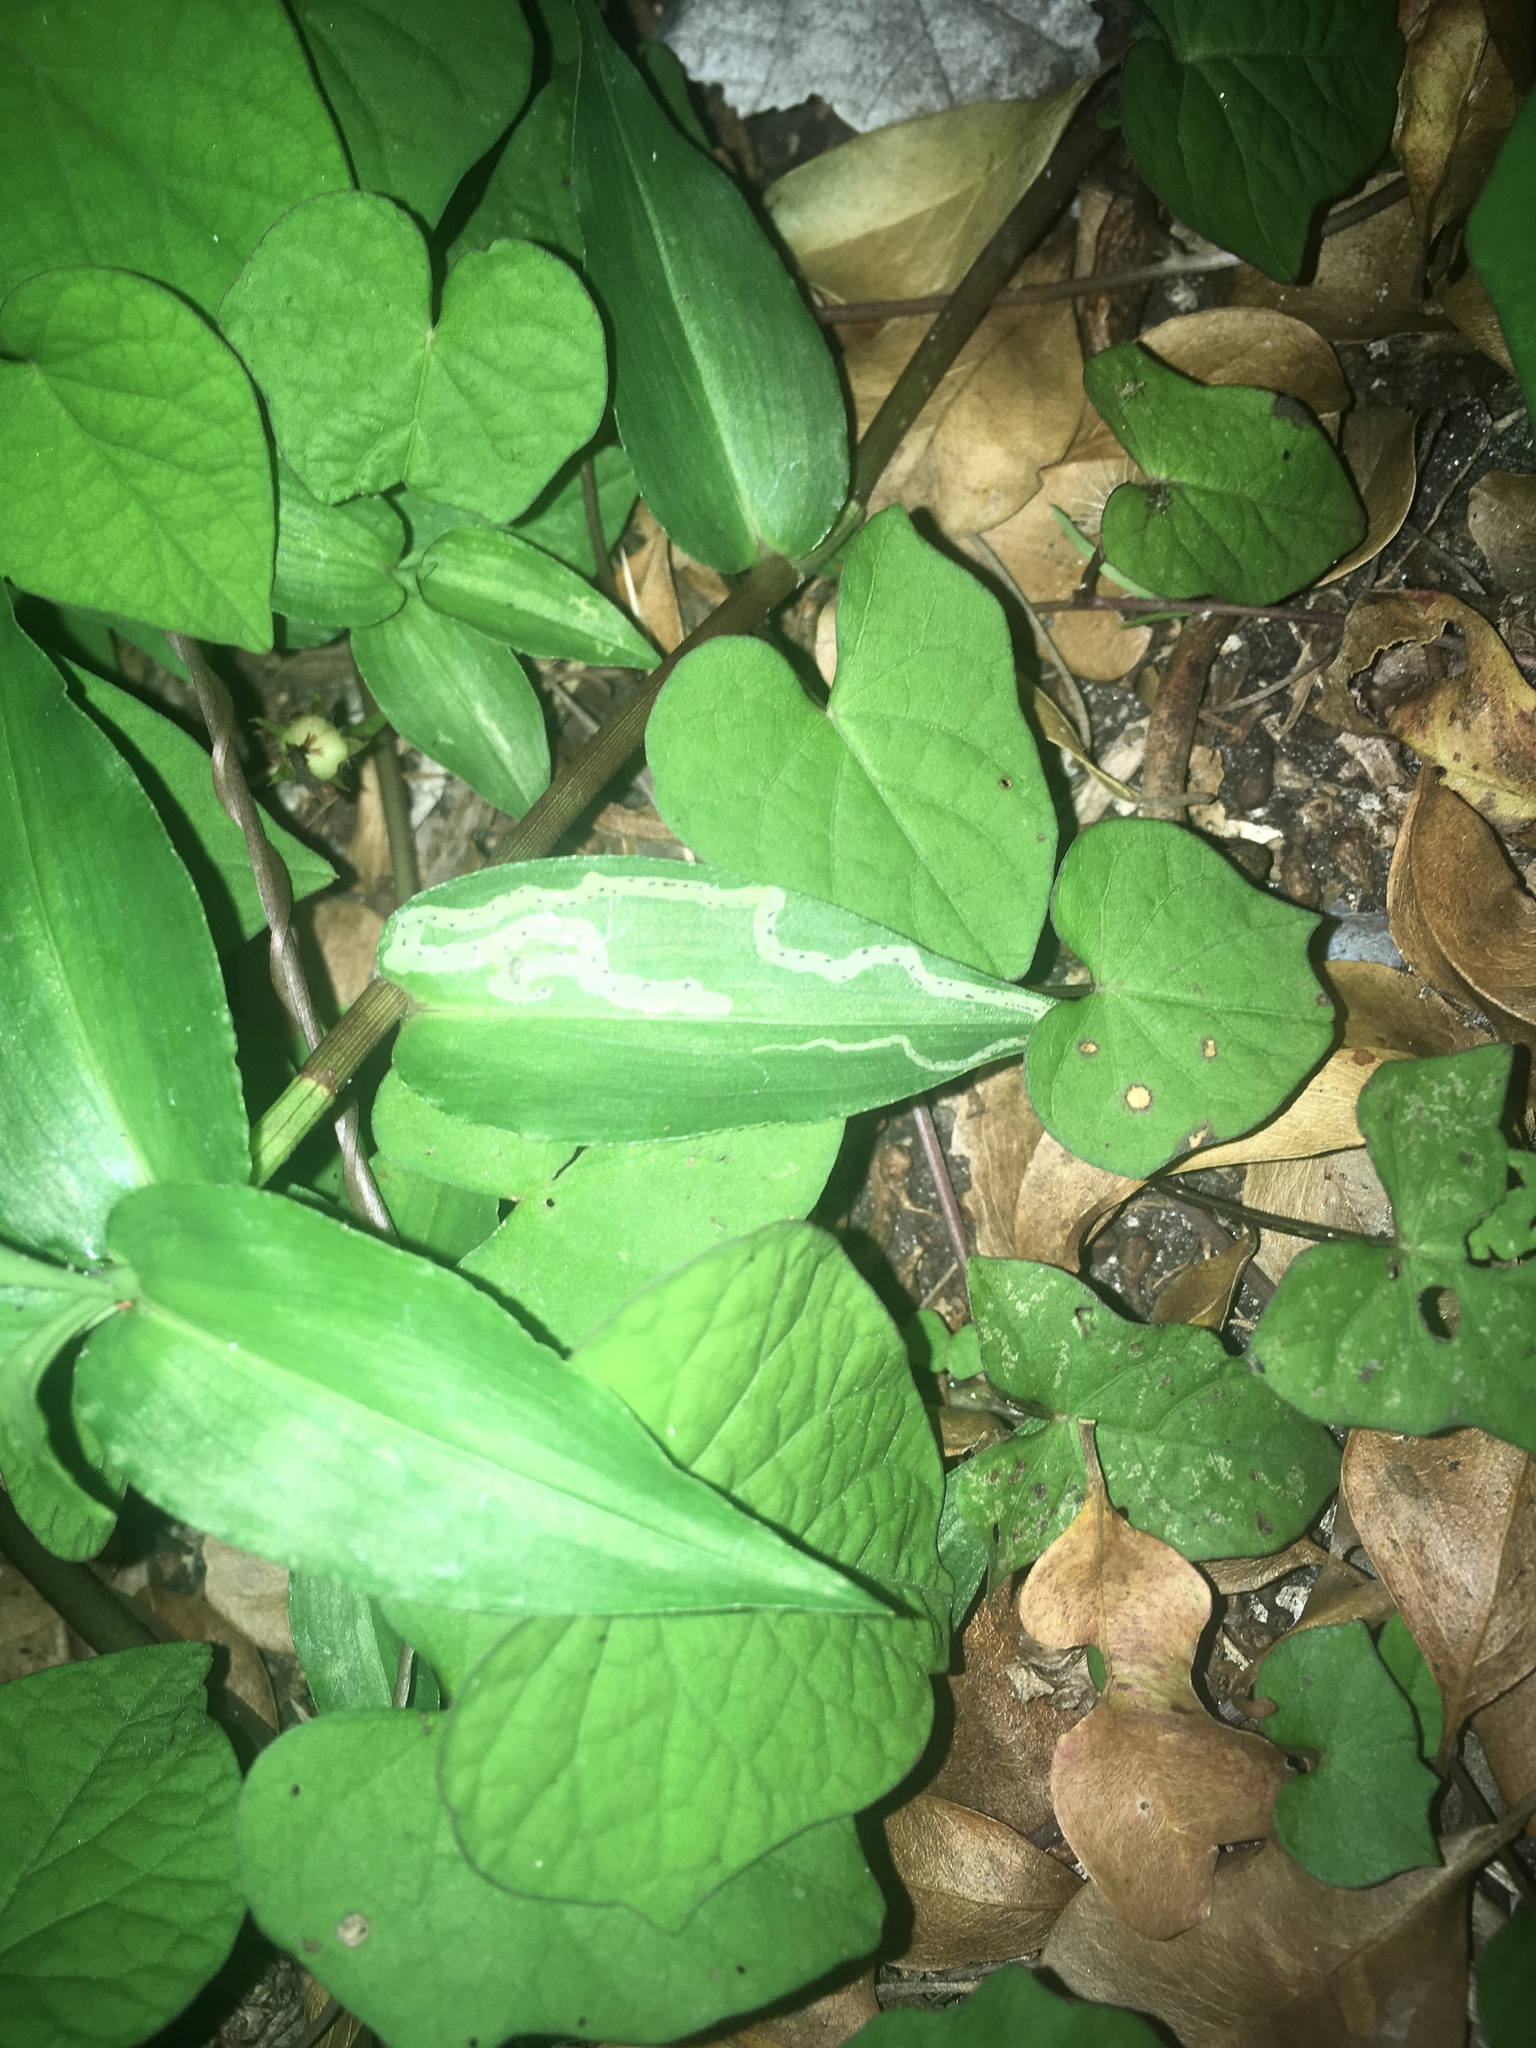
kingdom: Animalia
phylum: Arthropoda
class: Insecta
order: Diptera
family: Agromyzidae
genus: Liriomyza
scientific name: Liriomyza commelinae
